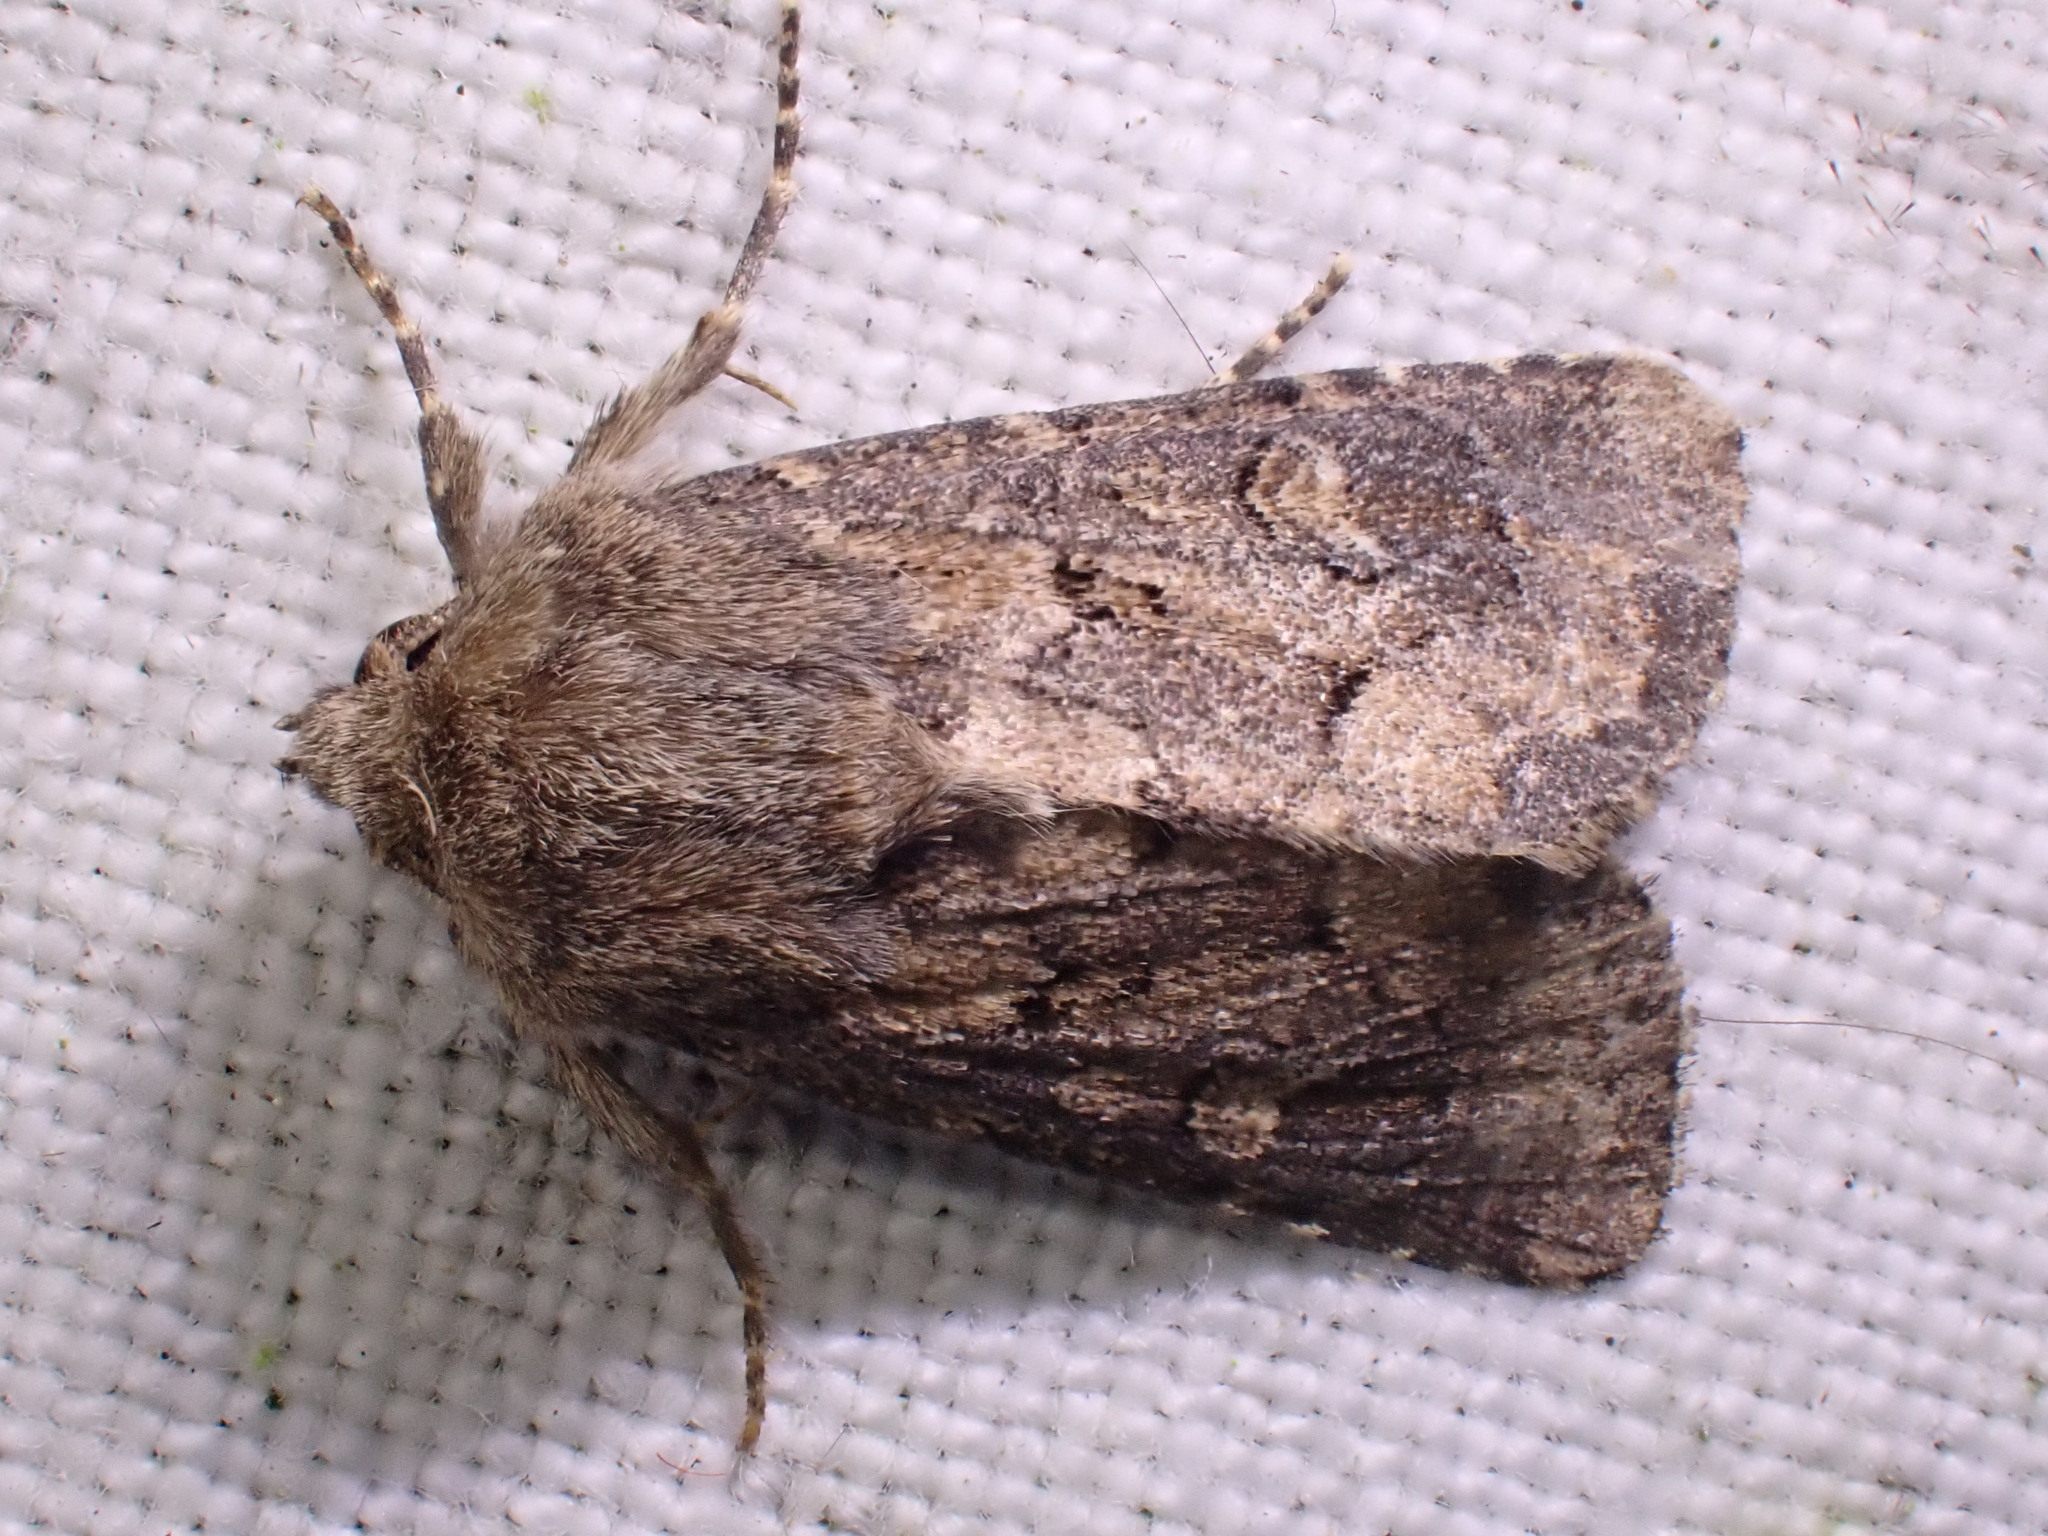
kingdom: Animalia
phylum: Arthropoda
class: Insecta
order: Lepidoptera
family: Noctuidae
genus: Luperina
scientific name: Luperina testacea
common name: Flounced rustic
